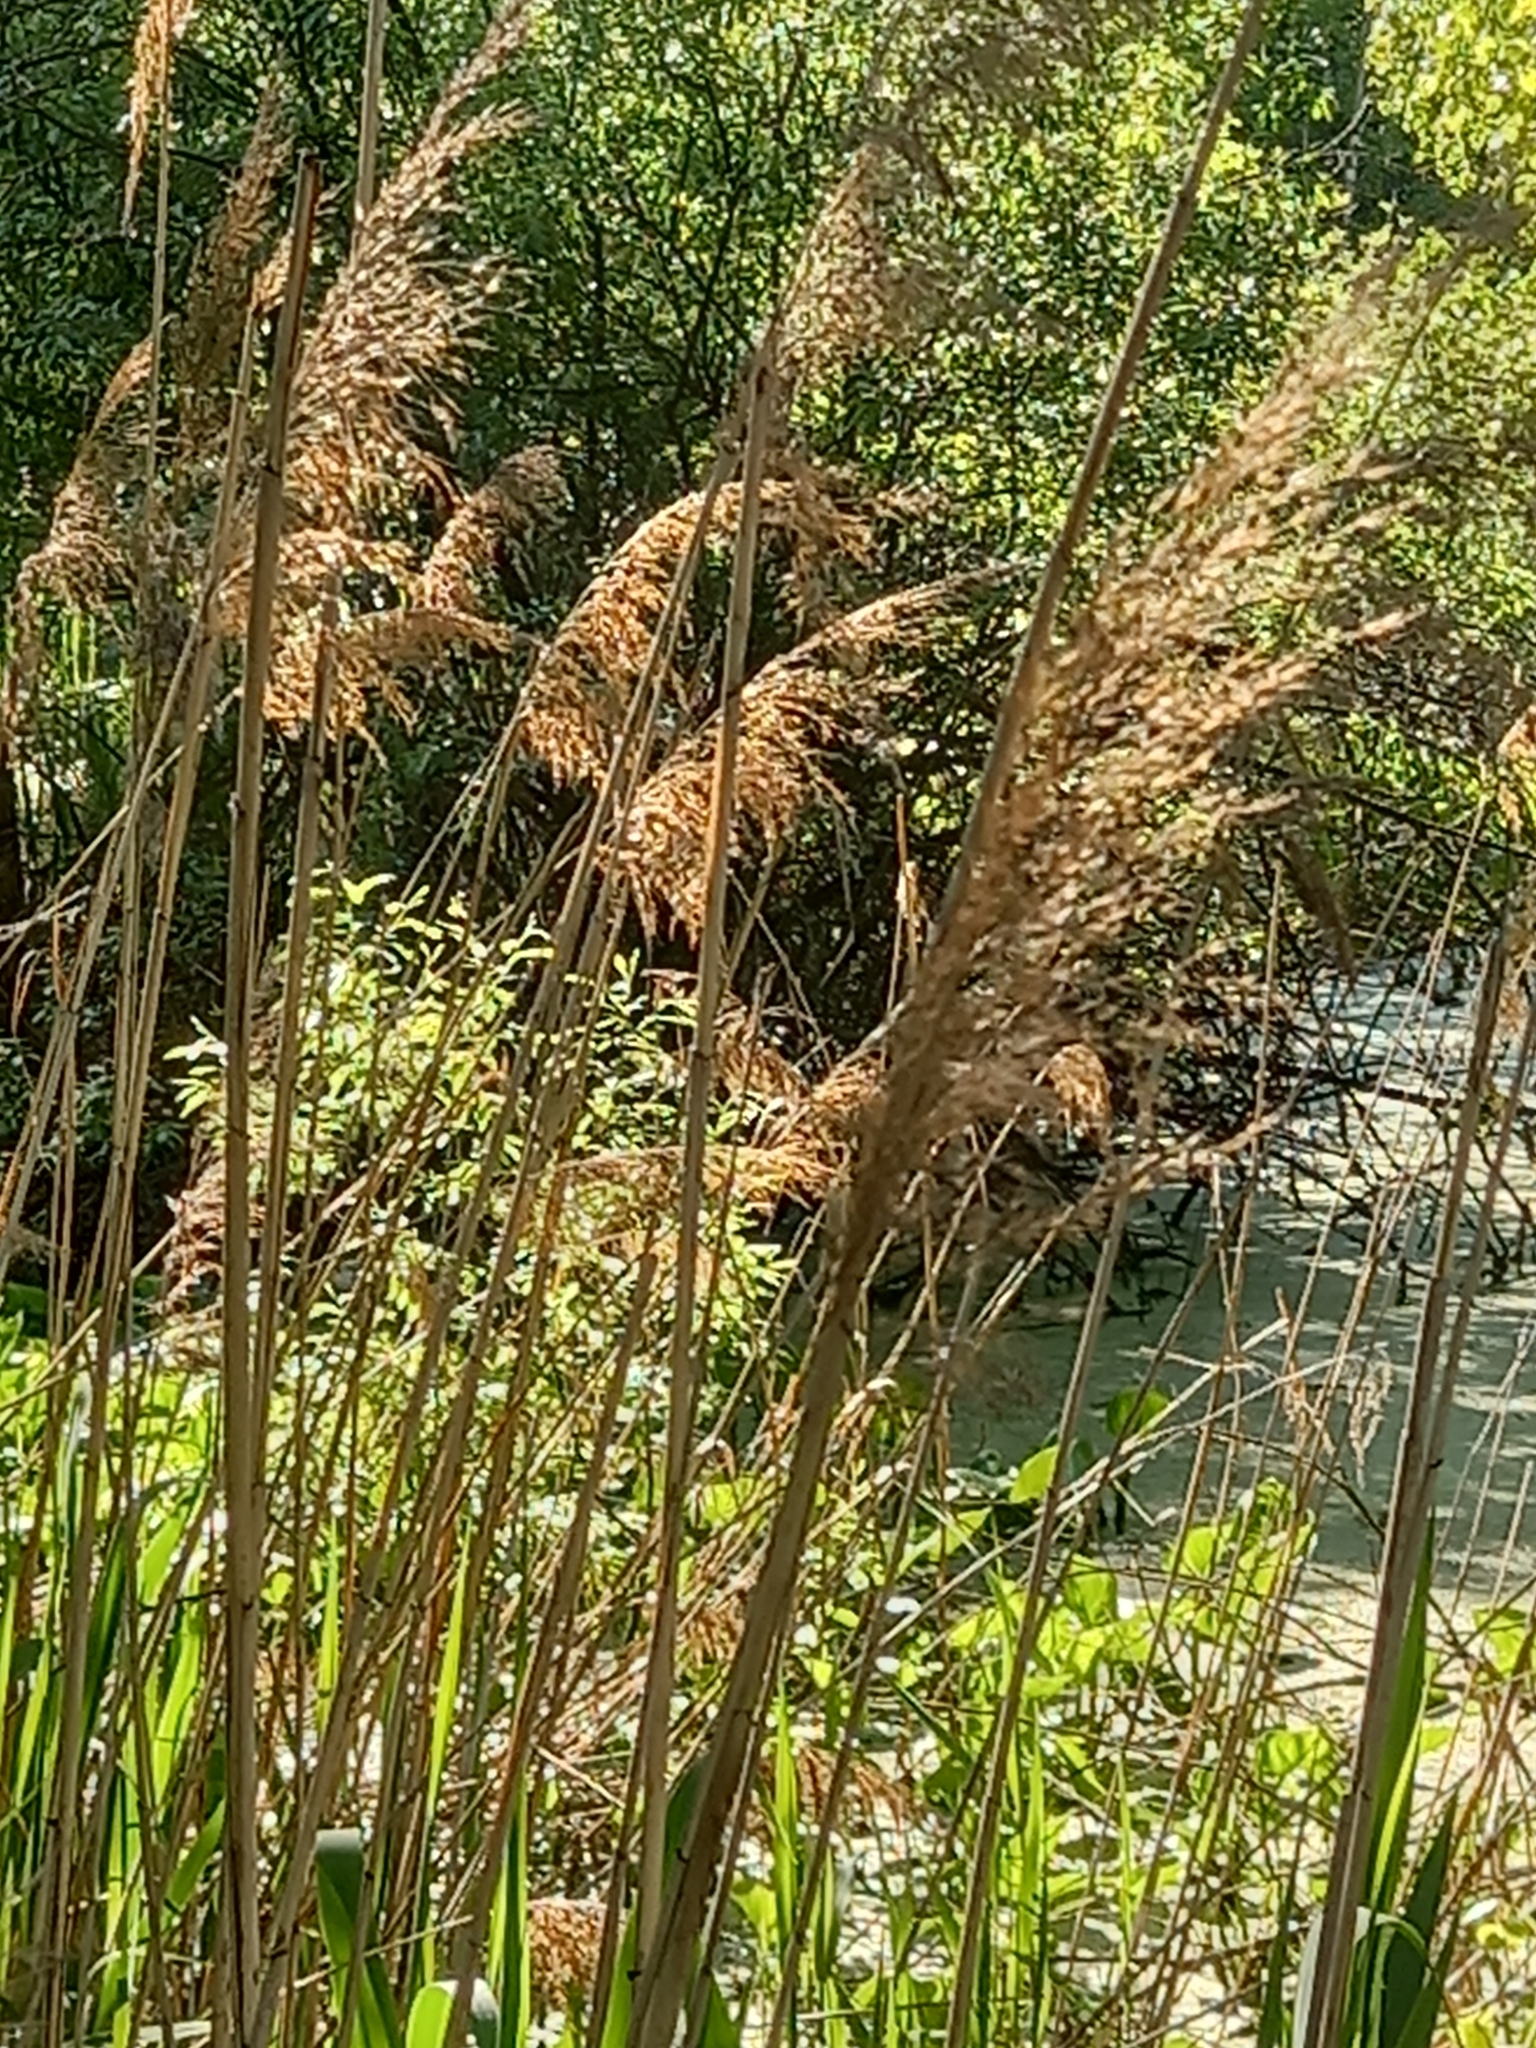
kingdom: Plantae
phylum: Tracheophyta
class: Liliopsida
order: Poales
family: Poaceae
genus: Phragmites
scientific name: Phragmites australis
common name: Common reed
